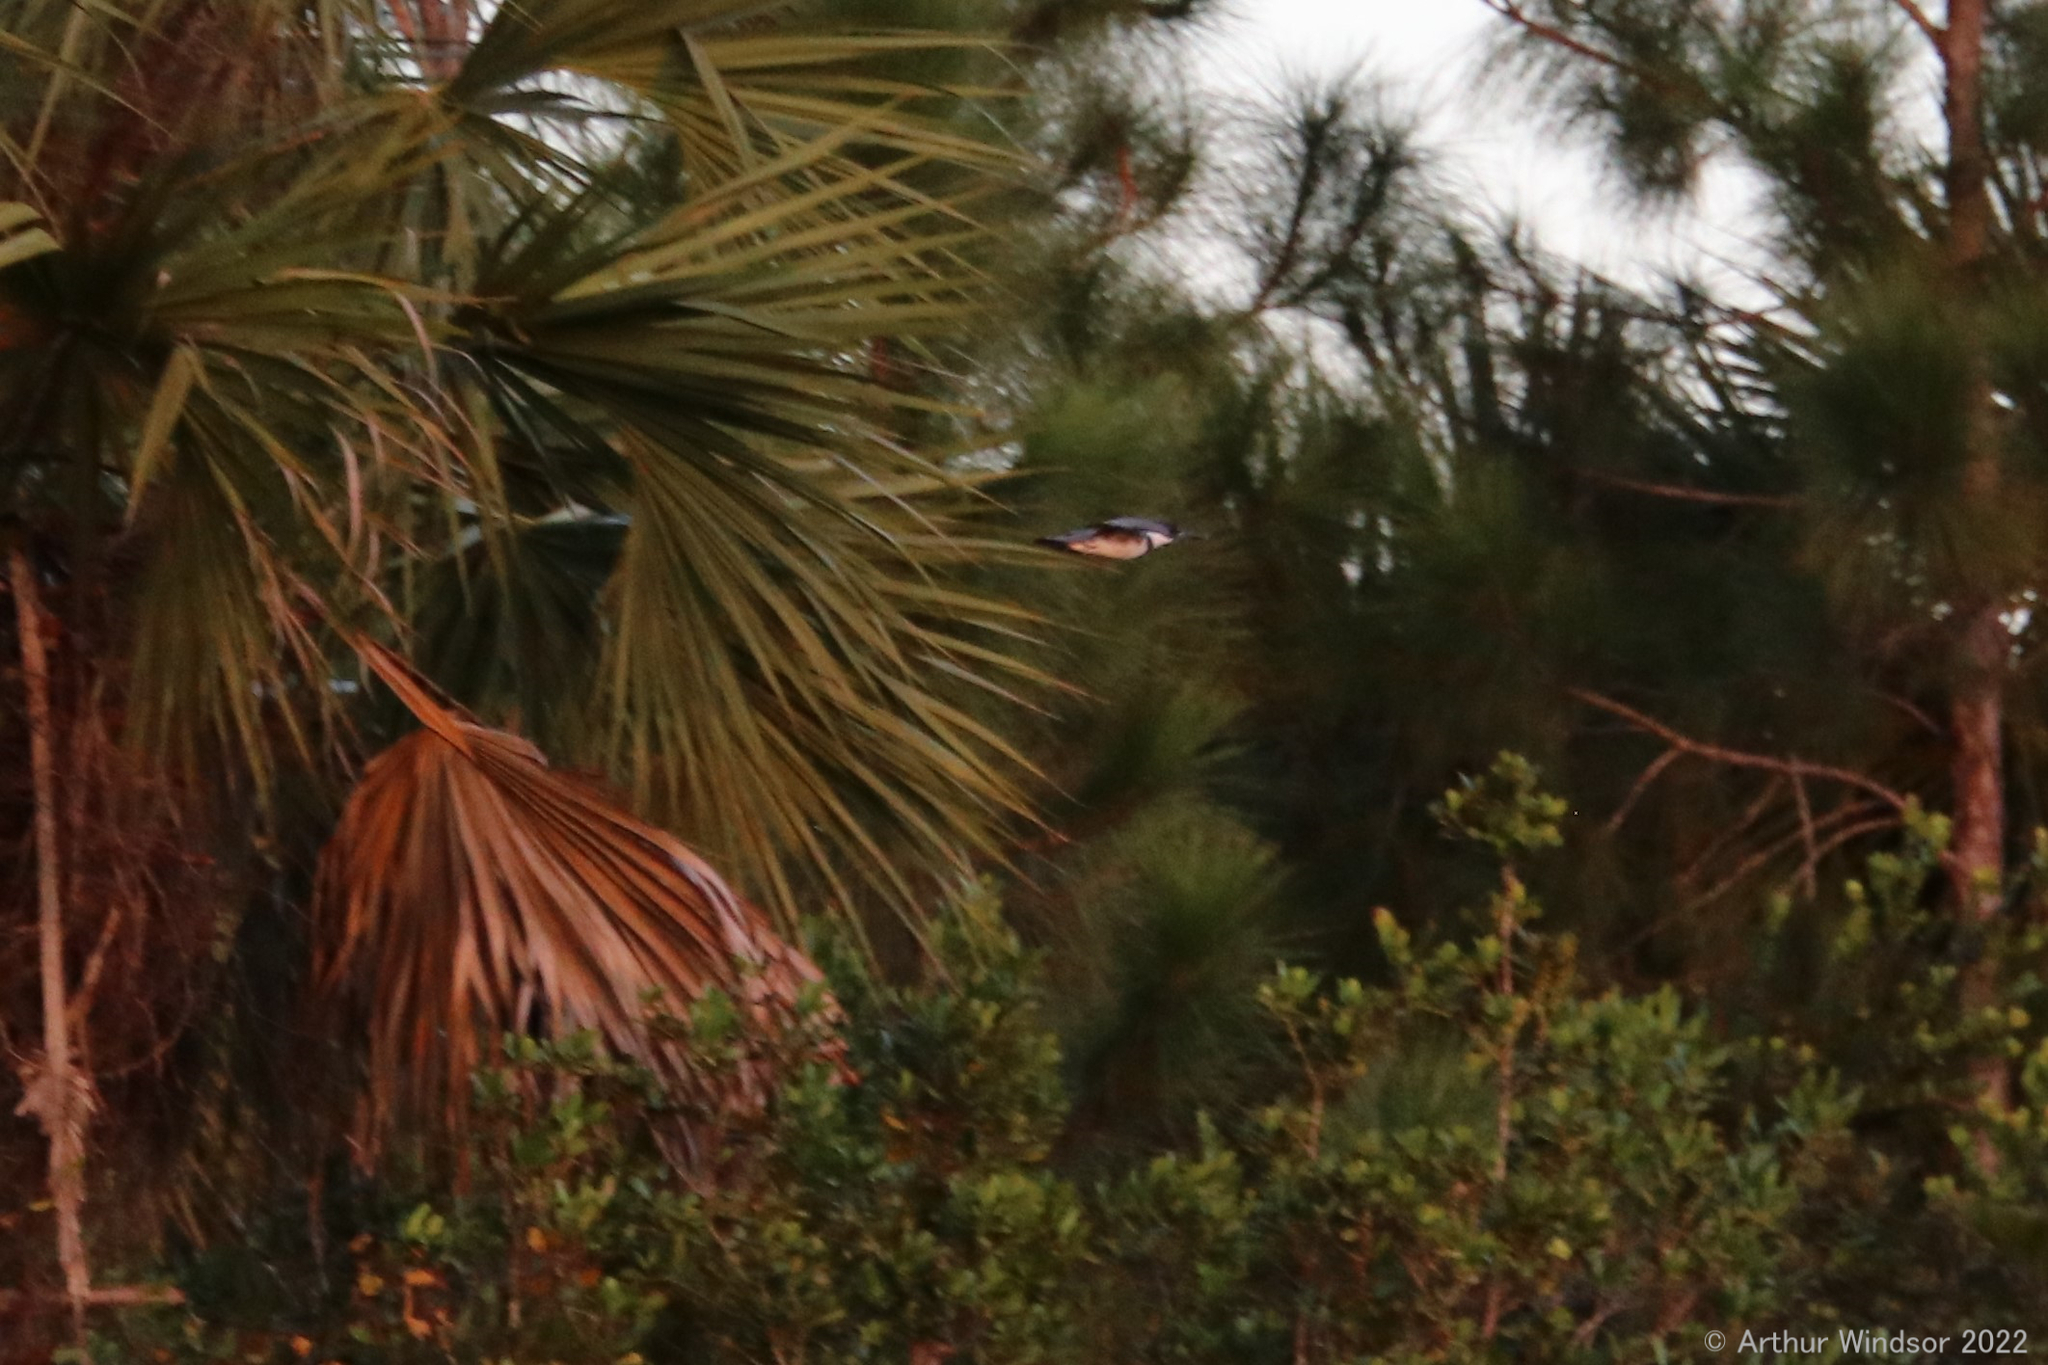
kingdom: Animalia
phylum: Chordata
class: Aves
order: Coraciiformes
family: Alcedinidae
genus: Megaceryle
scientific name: Megaceryle alcyon
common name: Belted kingfisher
